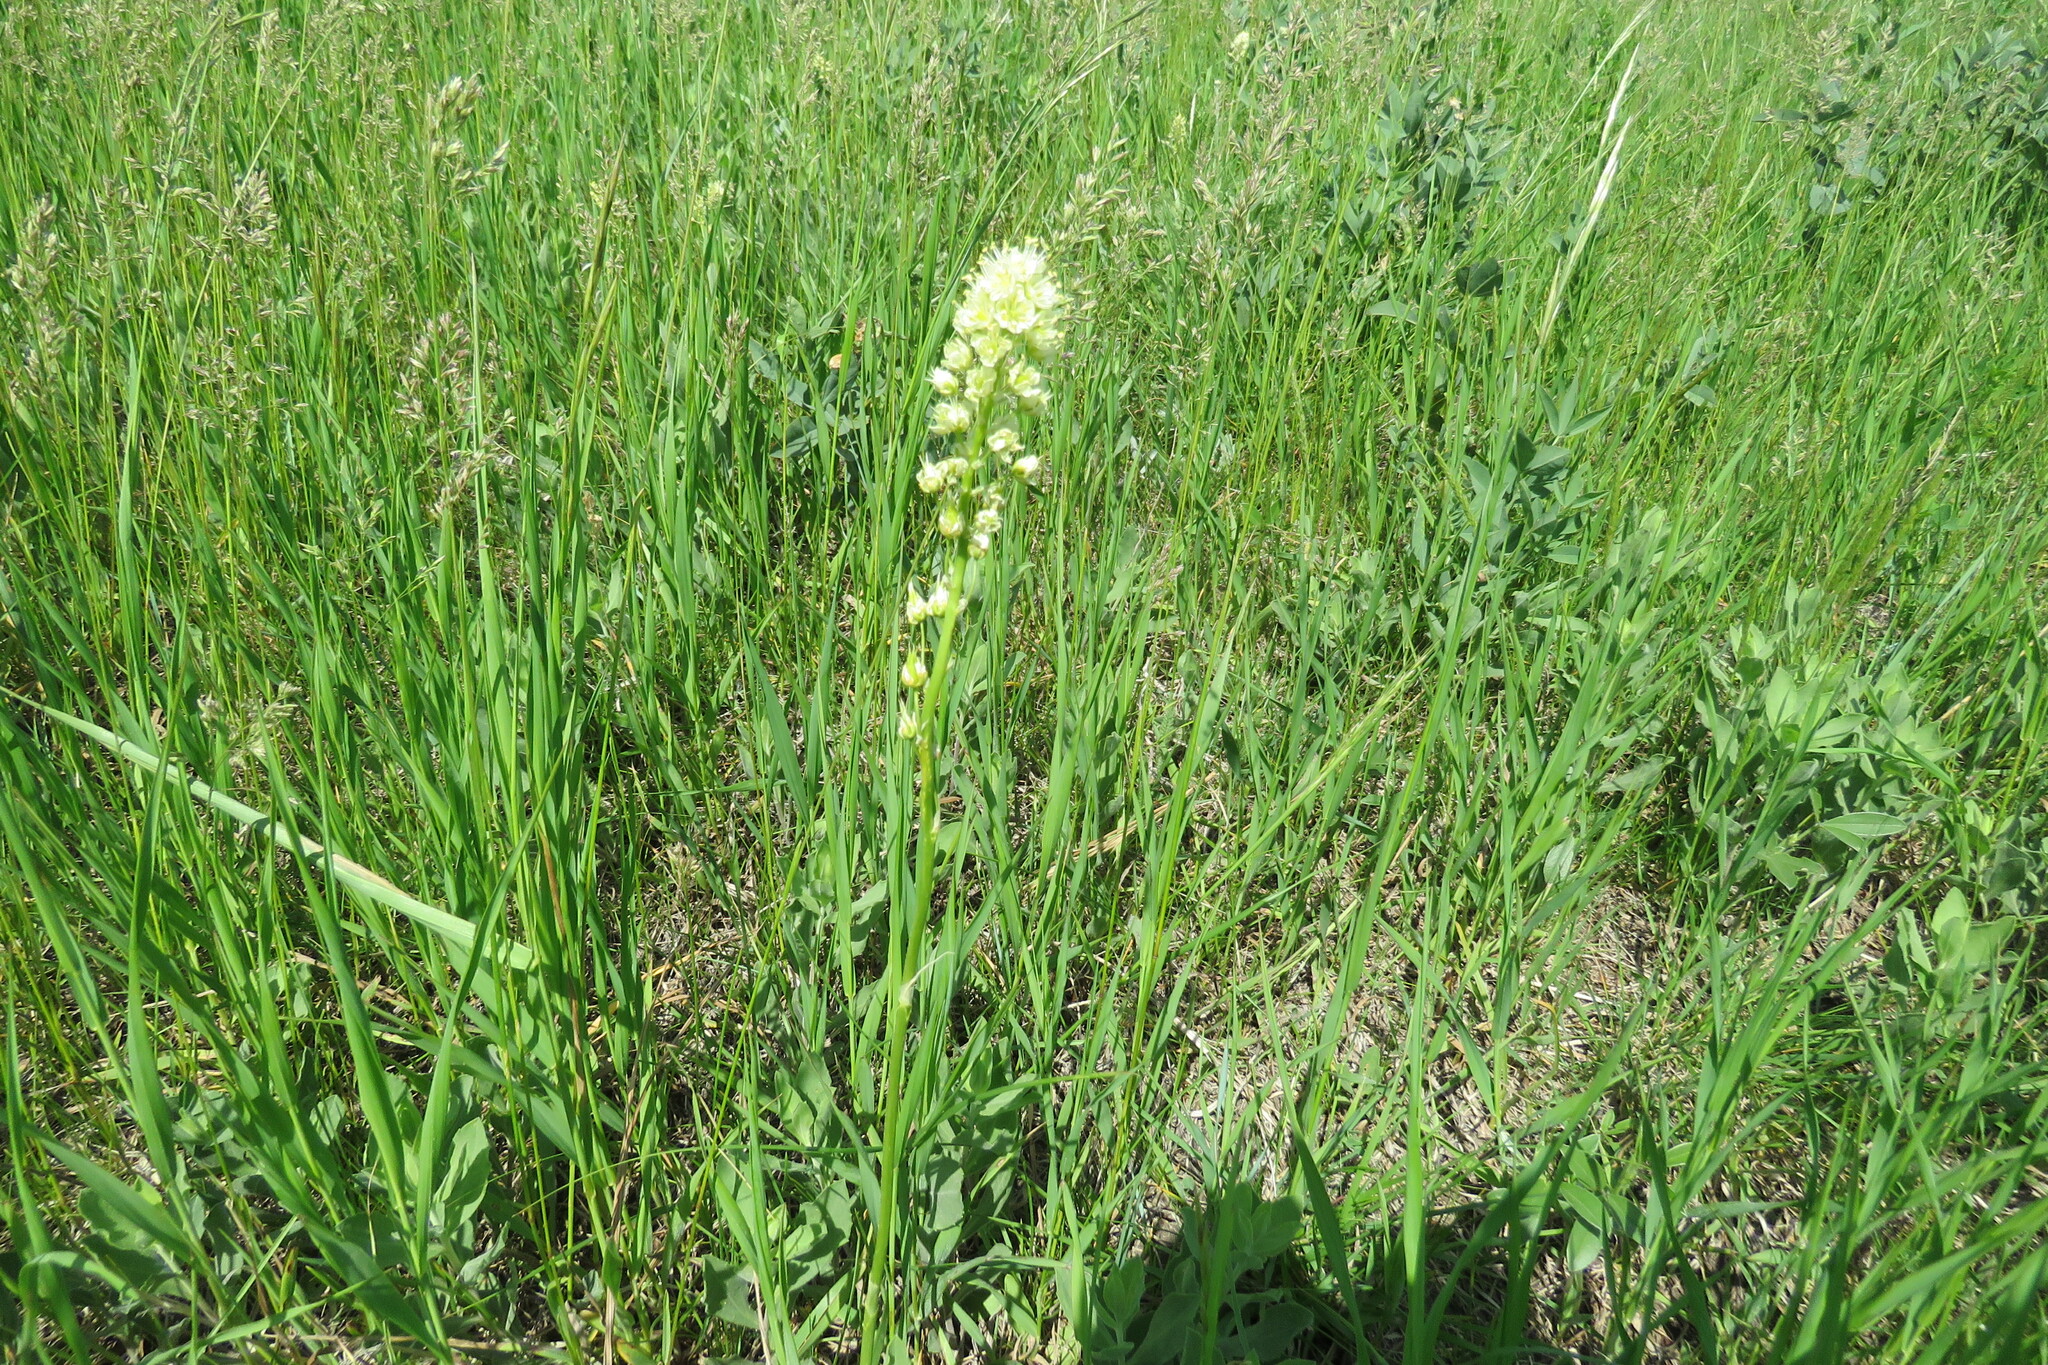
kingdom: Plantae
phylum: Tracheophyta
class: Liliopsida
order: Liliales
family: Melanthiaceae
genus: Toxicoscordion
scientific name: Toxicoscordion venenosum
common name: Meadow death camas
